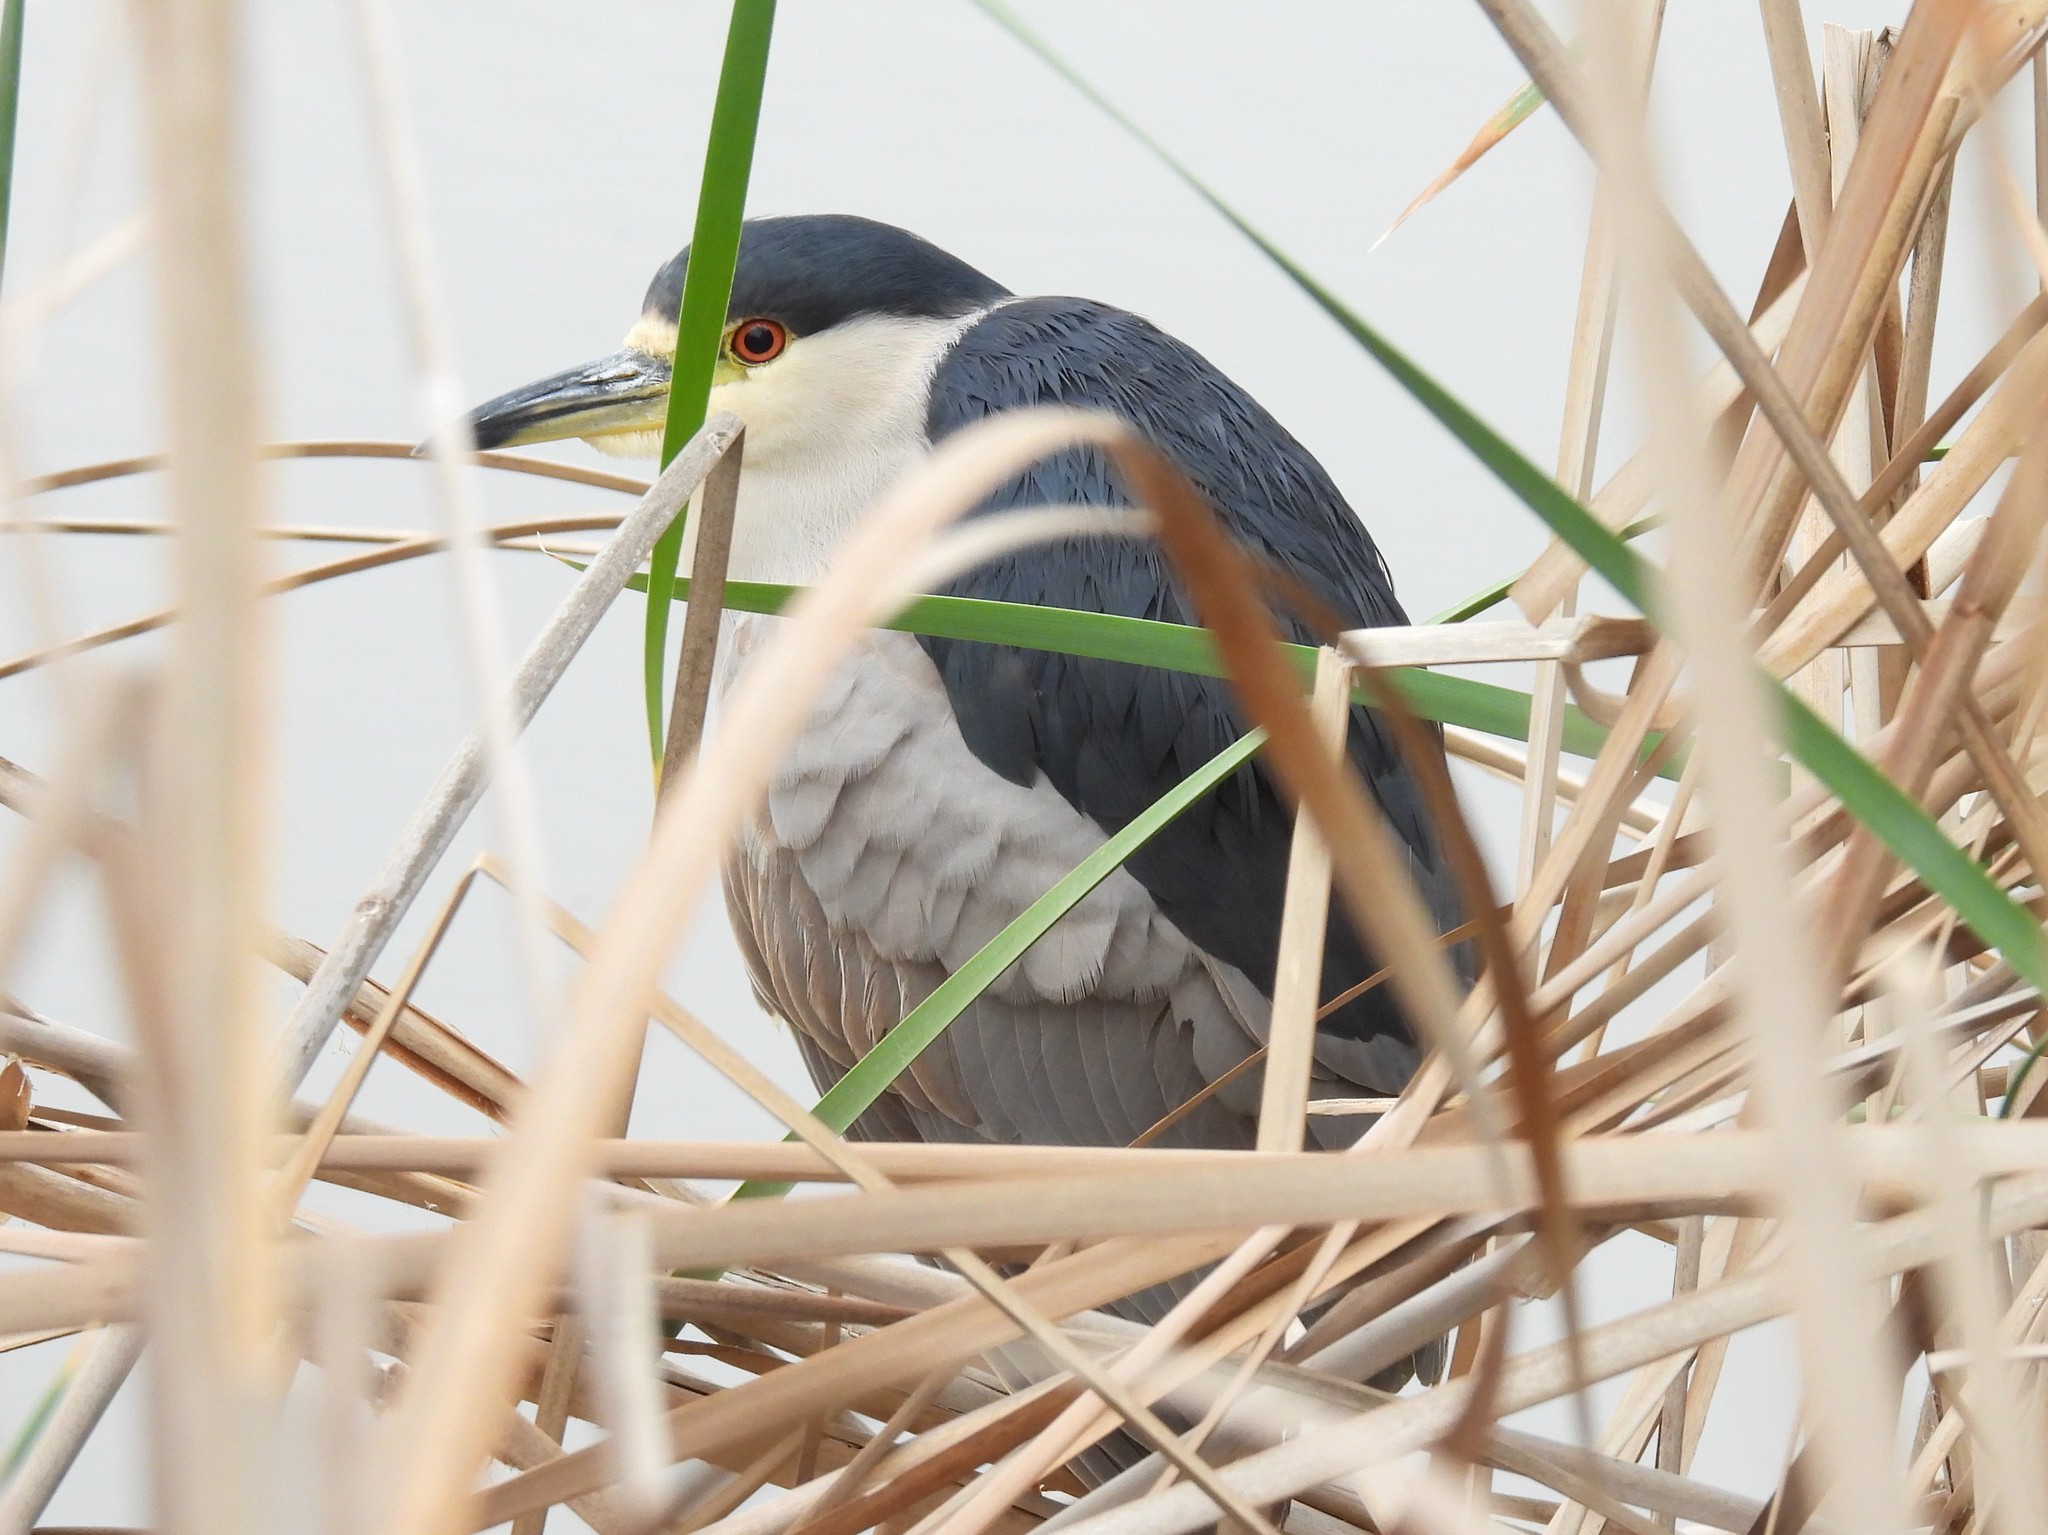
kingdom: Animalia
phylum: Chordata
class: Aves
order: Pelecaniformes
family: Ardeidae
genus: Nycticorax
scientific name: Nycticorax nycticorax
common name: Black-crowned night heron
